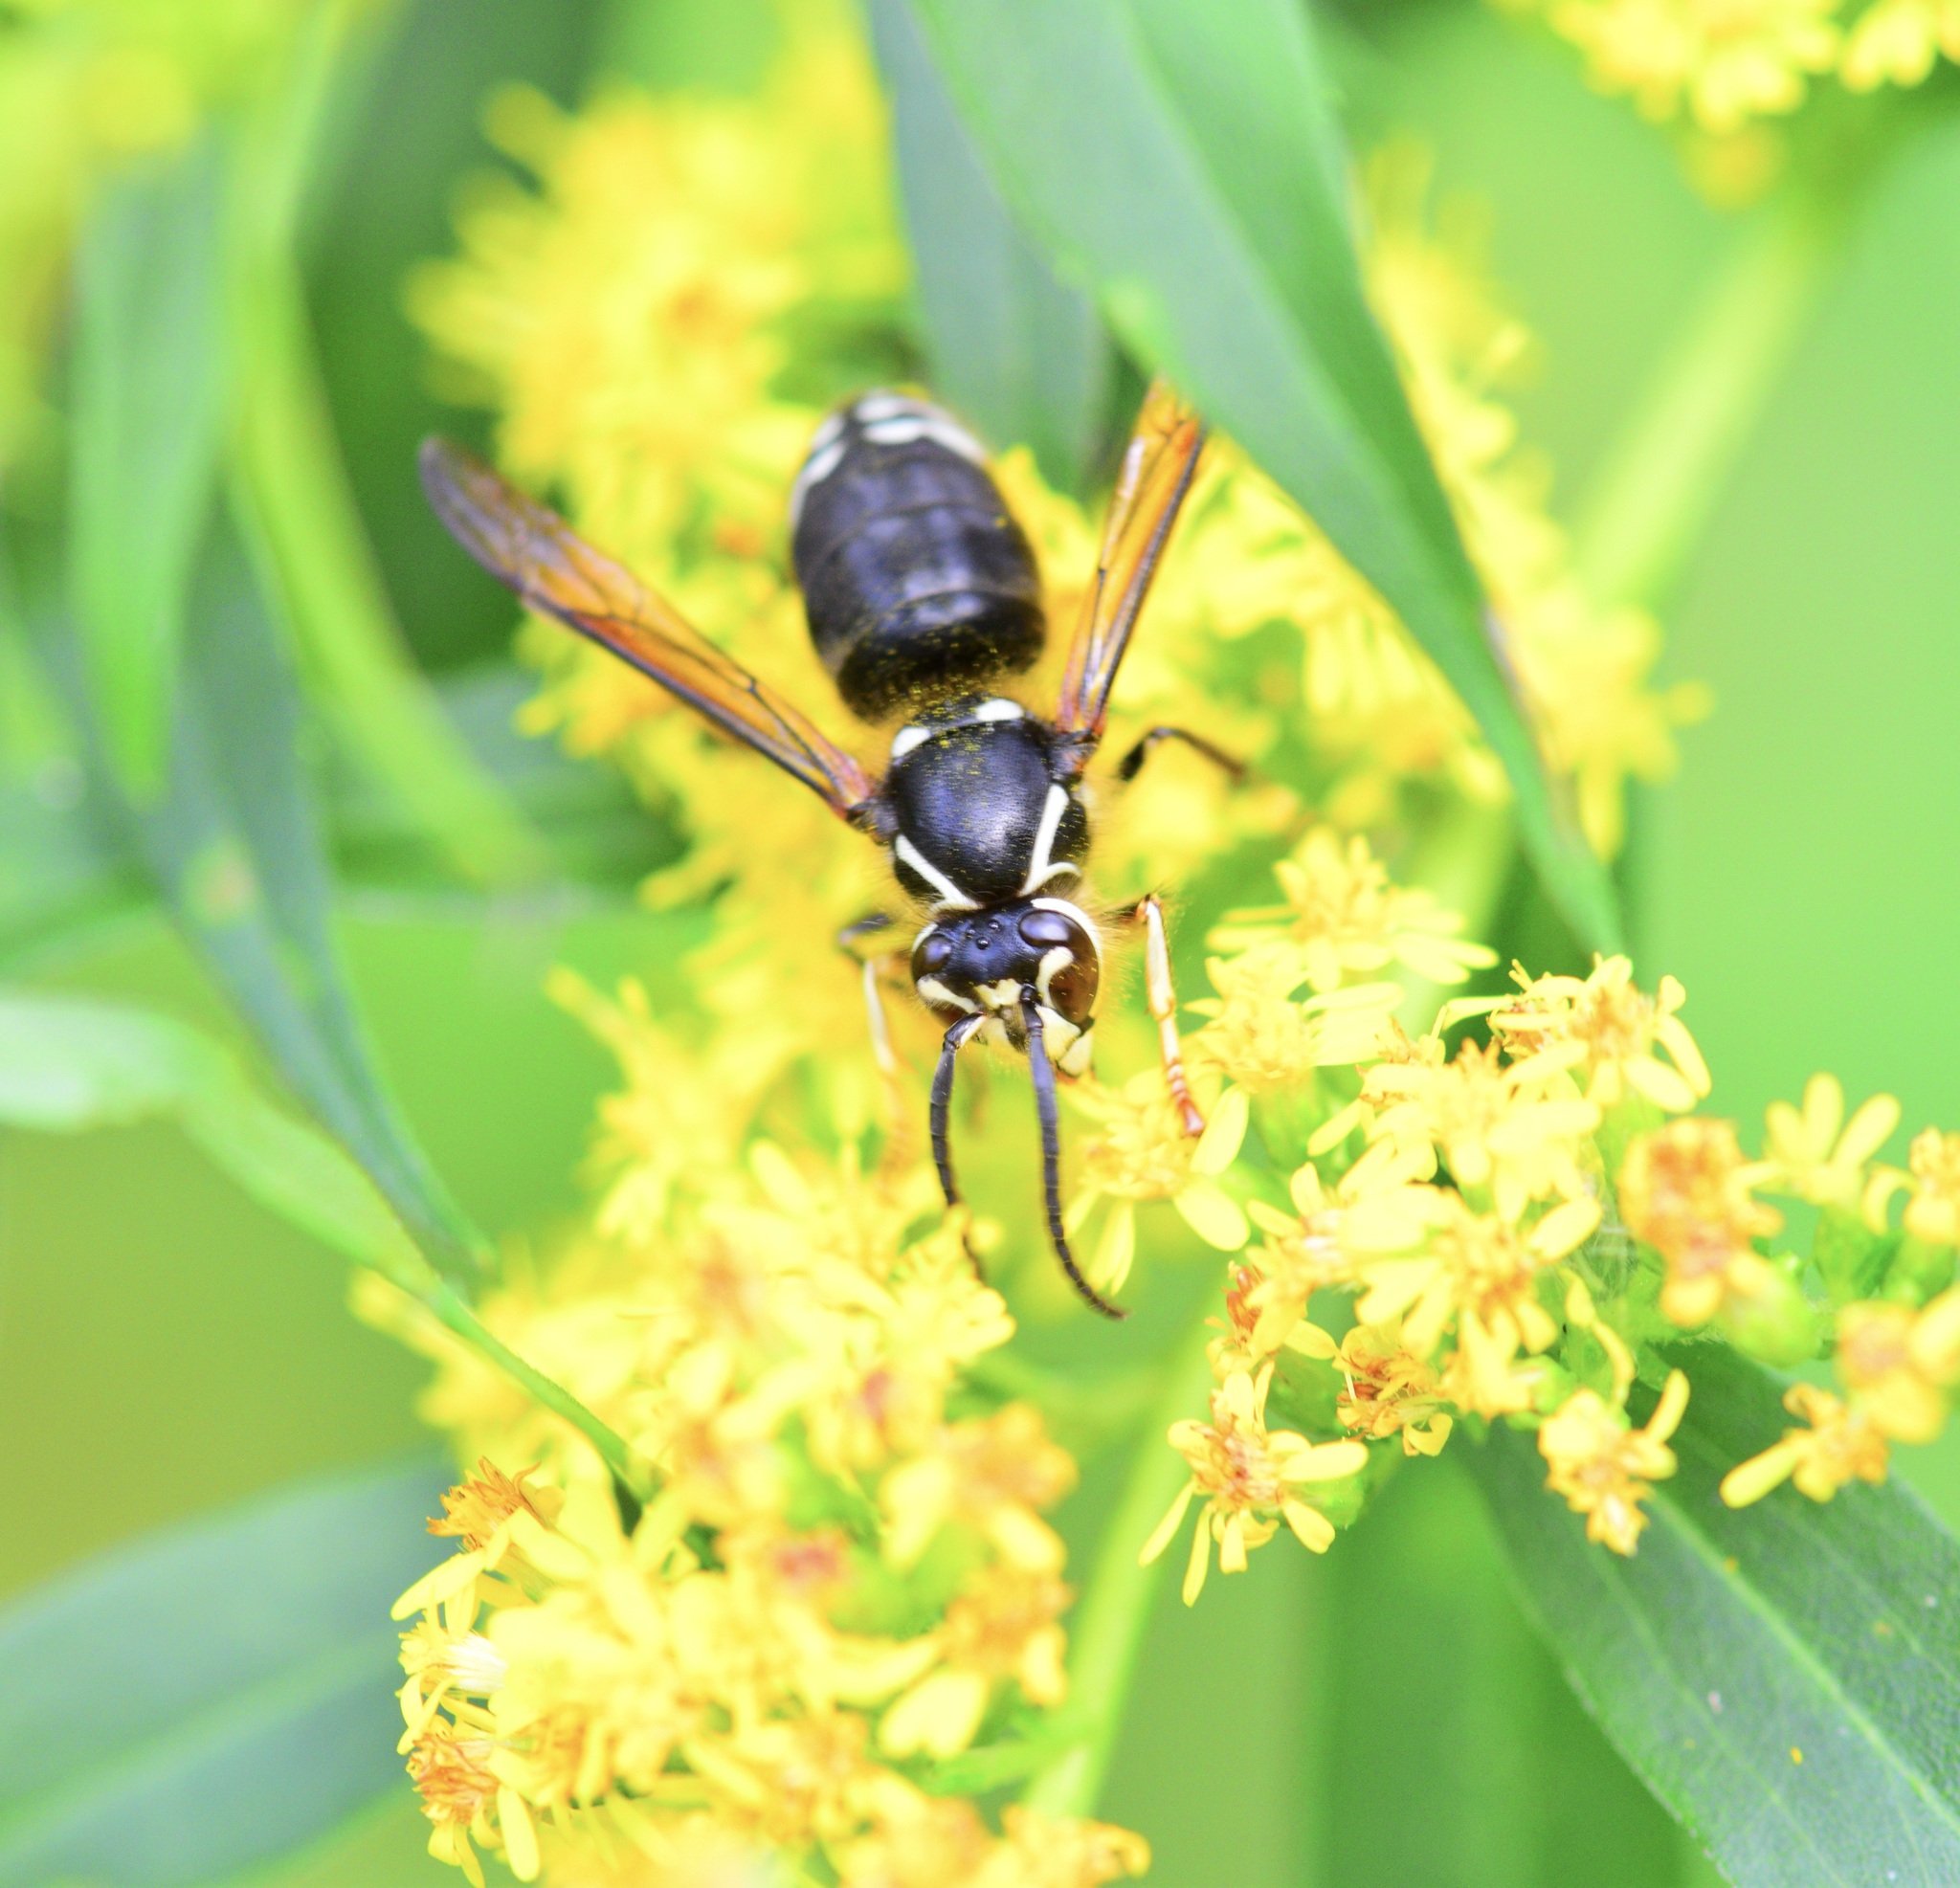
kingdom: Animalia
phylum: Arthropoda
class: Insecta
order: Hymenoptera
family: Vespidae
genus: Dolichovespula
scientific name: Dolichovespula maculata
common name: Bald-faced hornet
